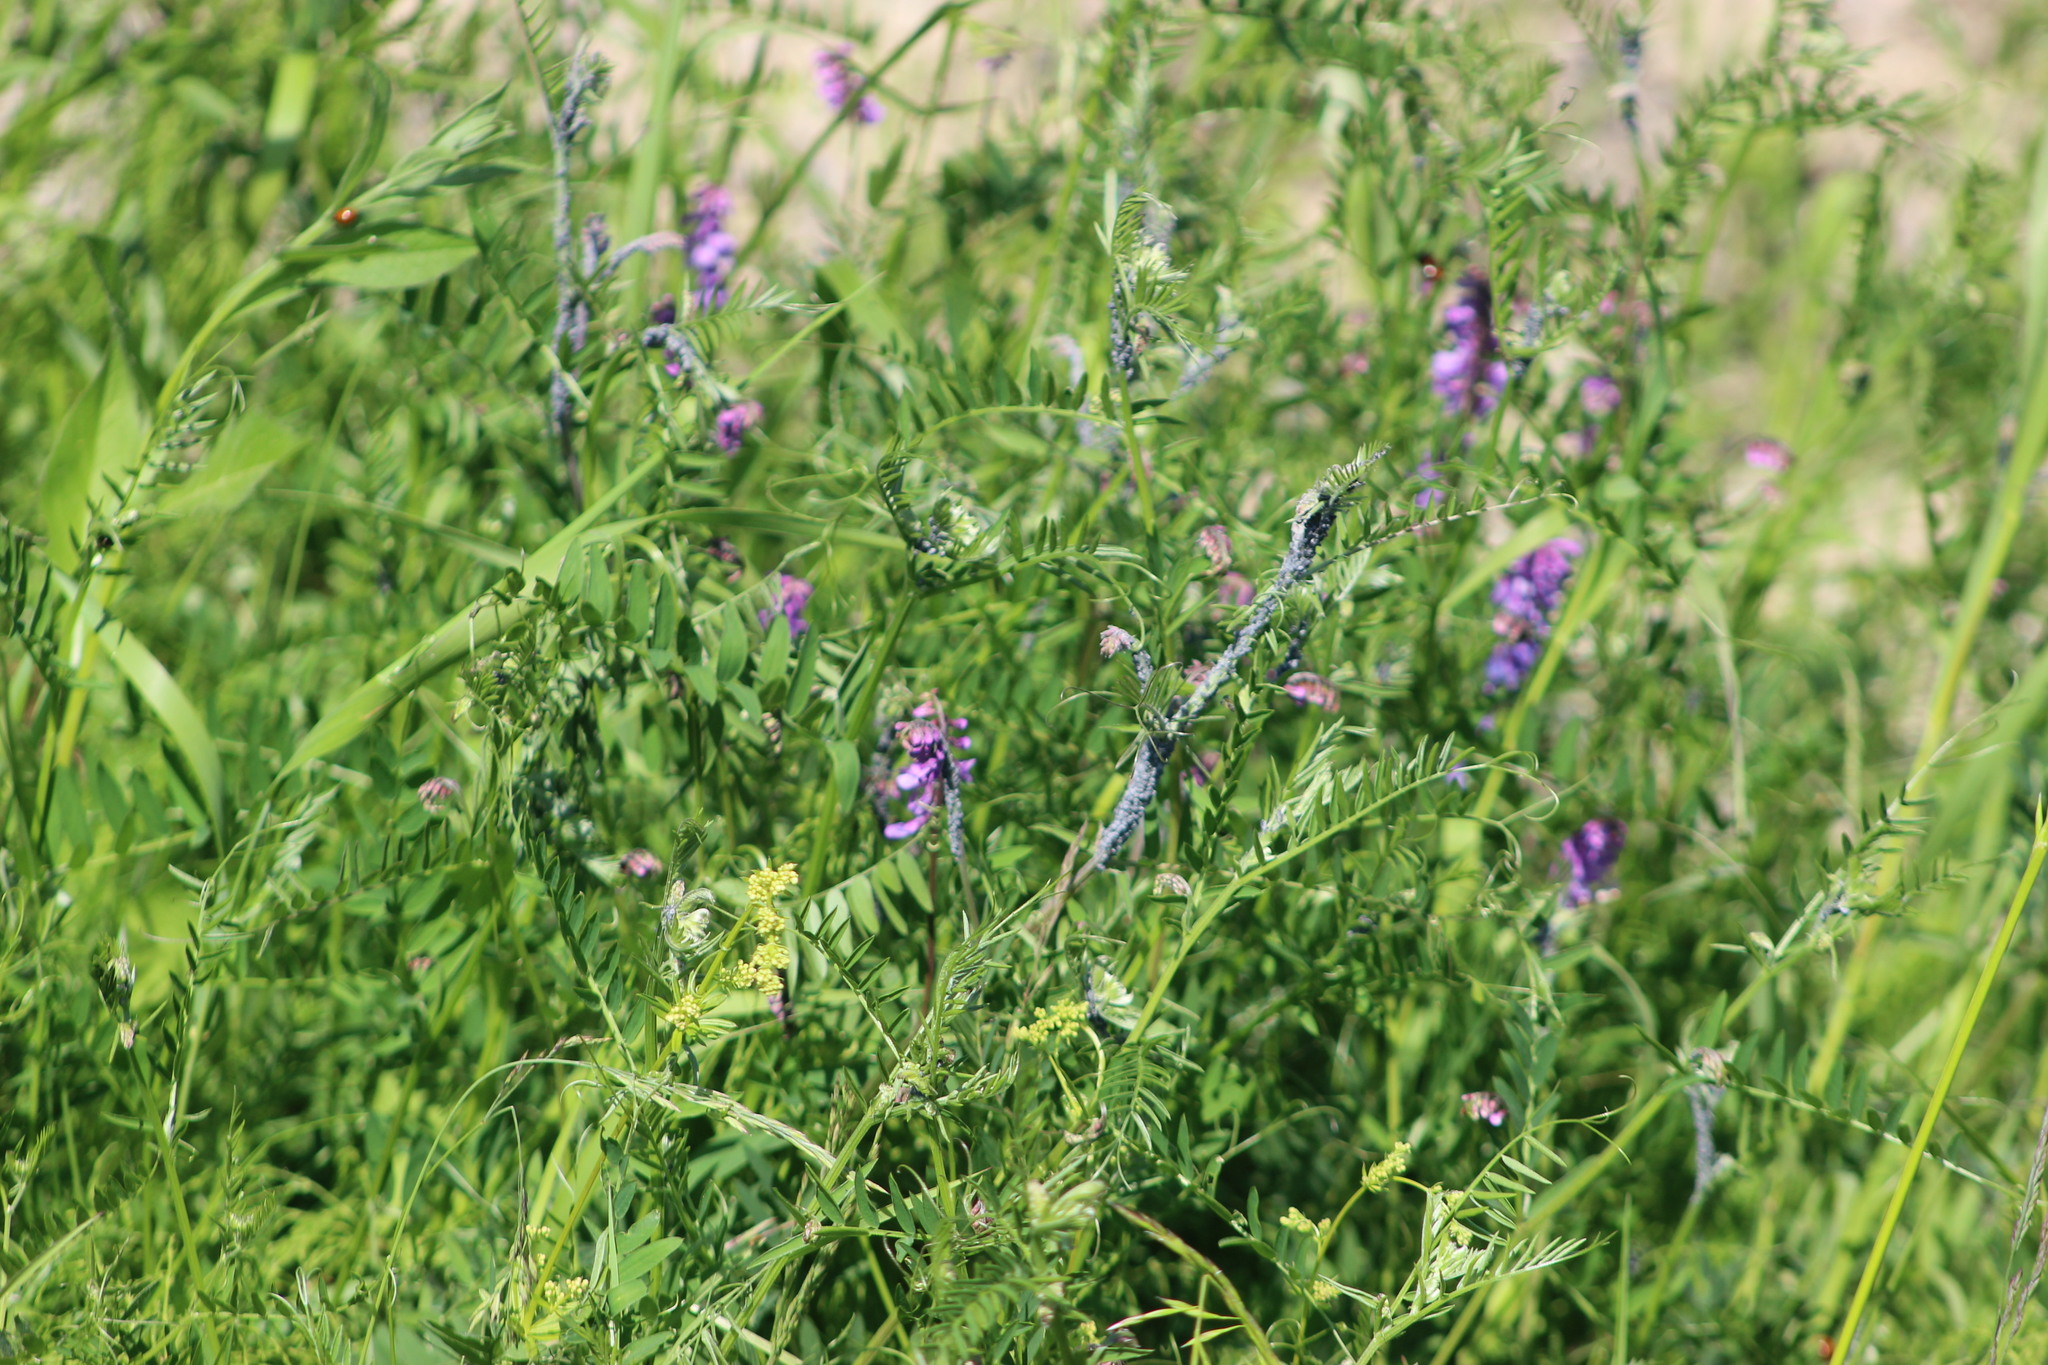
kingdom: Plantae
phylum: Tracheophyta
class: Magnoliopsida
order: Fabales
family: Fabaceae
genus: Vicia
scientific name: Vicia cracca
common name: Bird vetch
